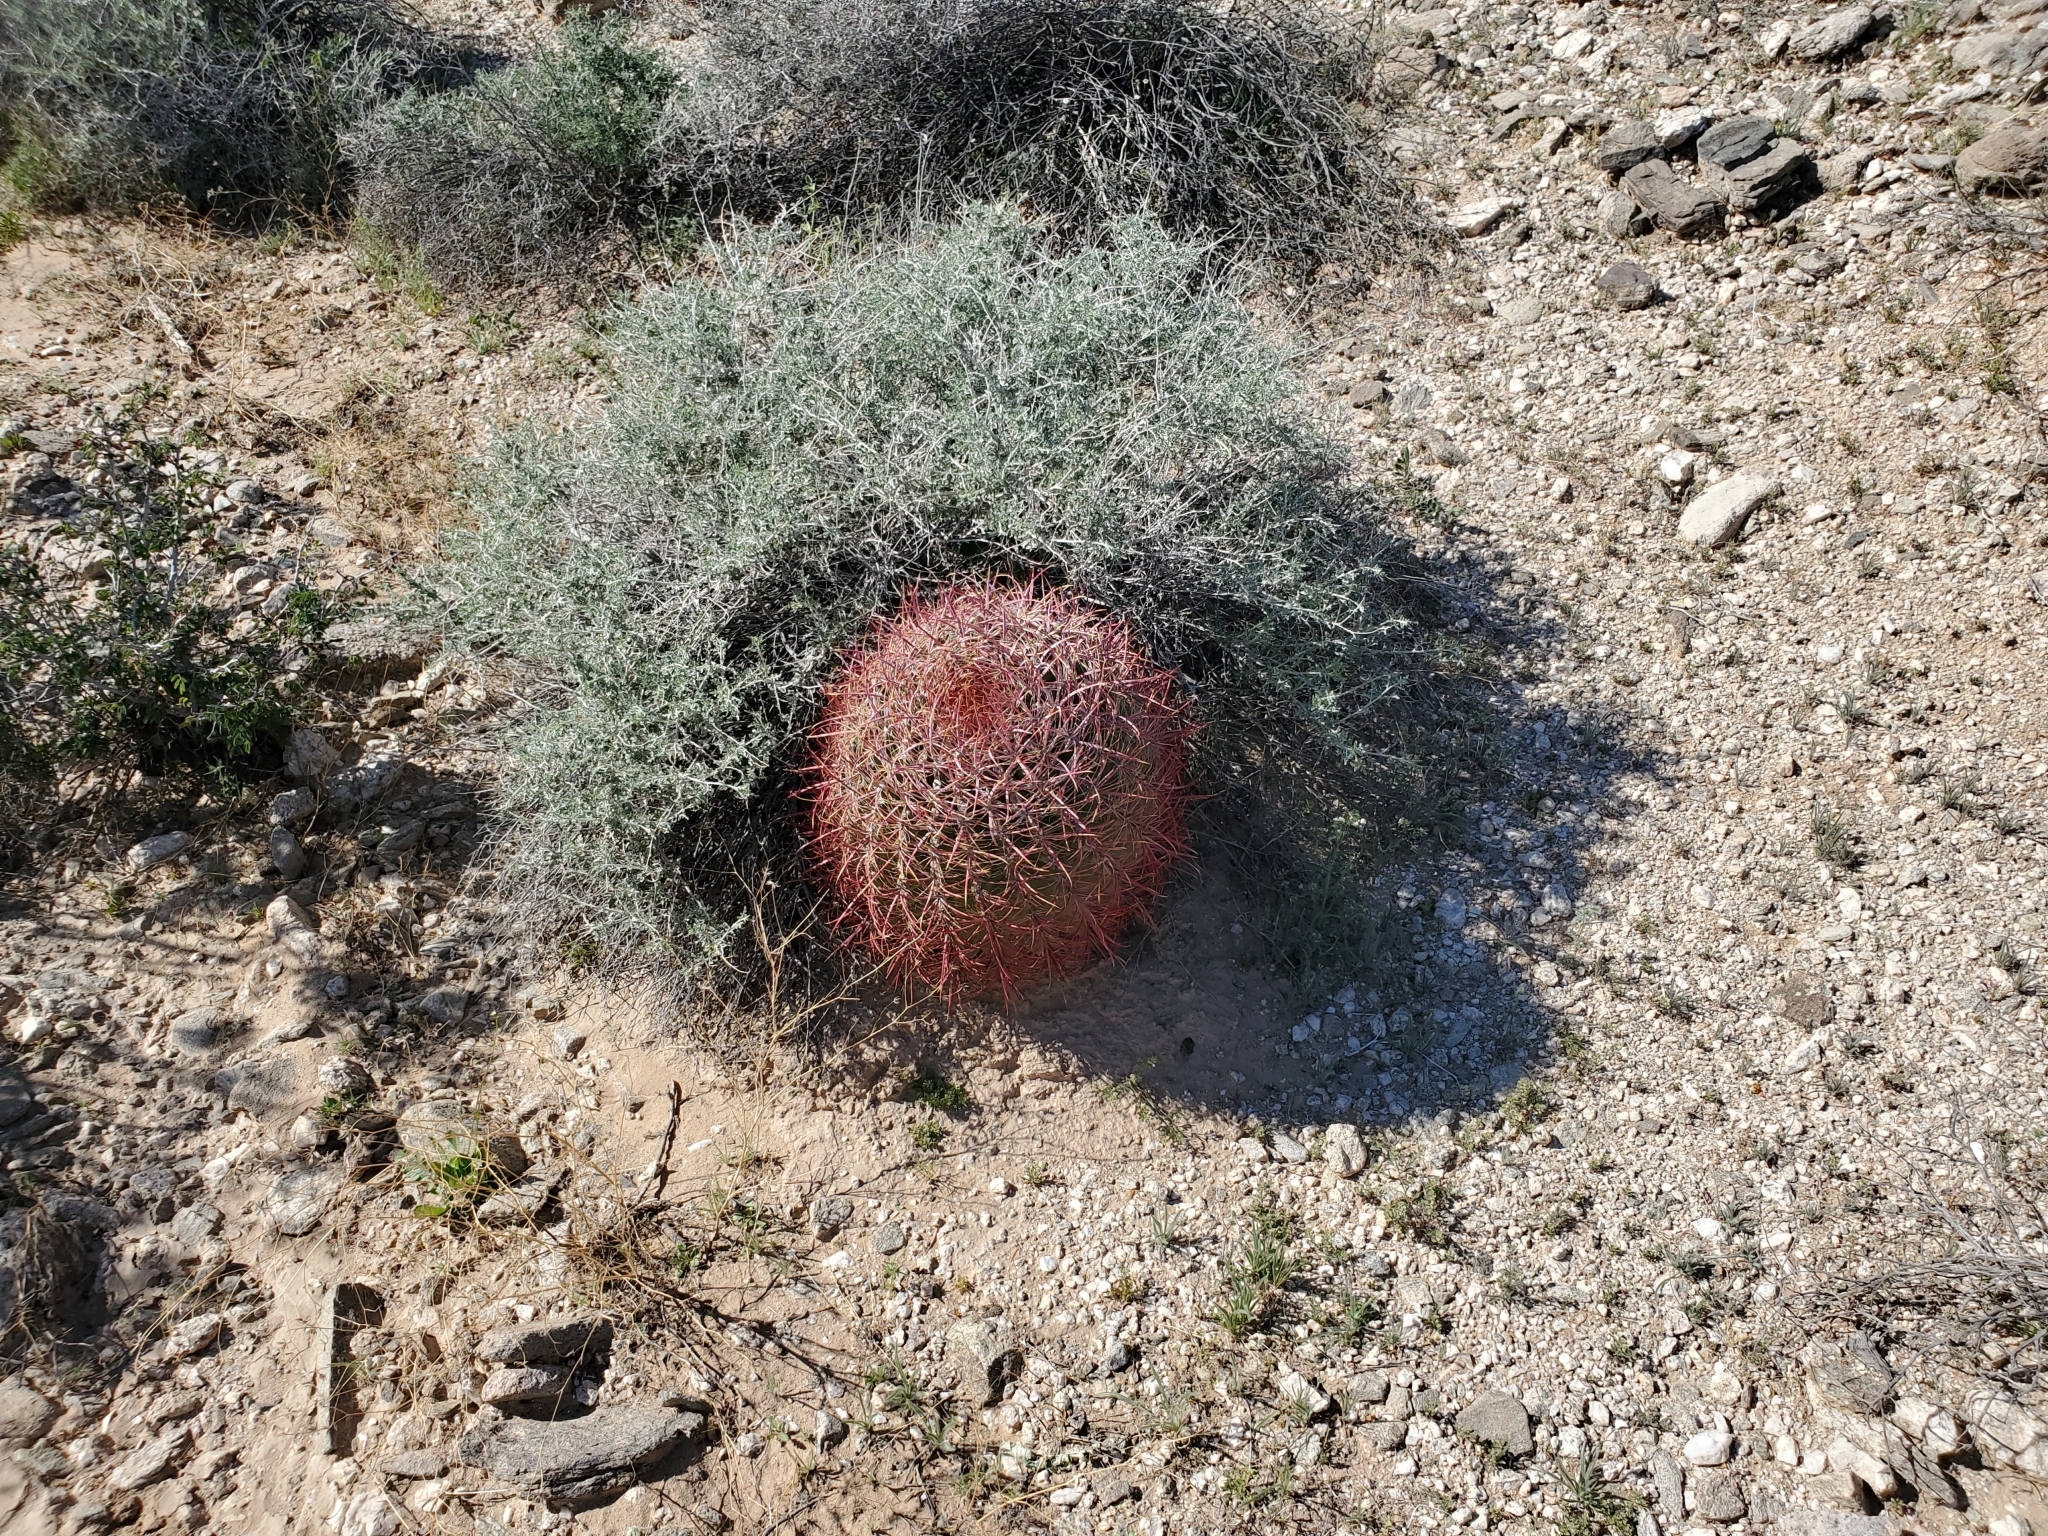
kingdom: Plantae
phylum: Tracheophyta
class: Magnoliopsida
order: Caryophyllales
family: Cactaceae
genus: Ferocactus
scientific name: Ferocactus cylindraceus
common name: California barrel cactus
